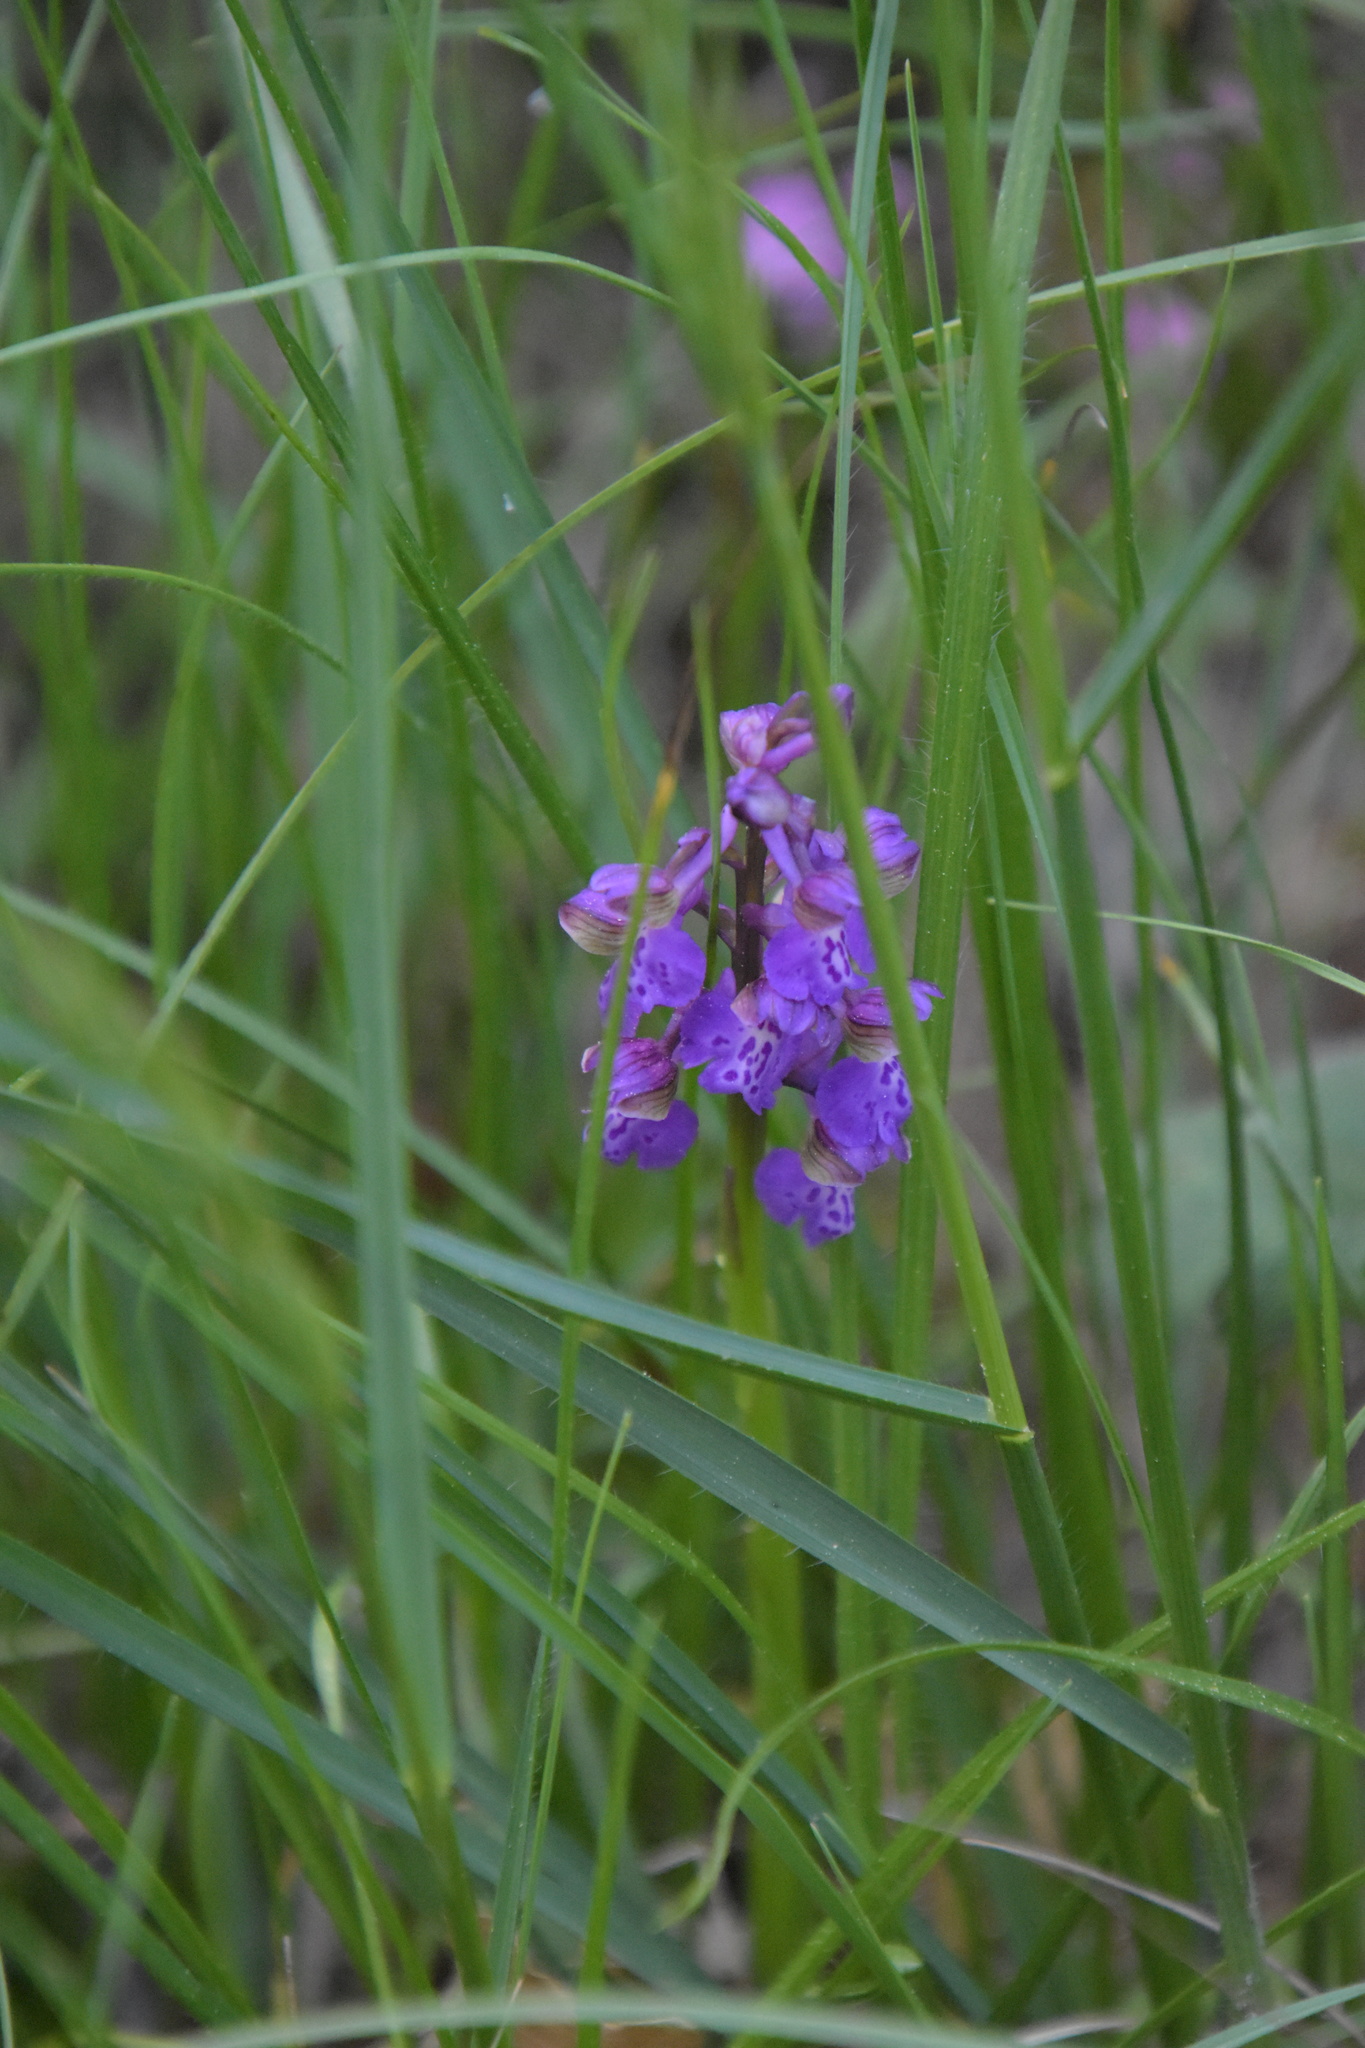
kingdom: Plantae
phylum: Tracheophyta
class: Liliopsida
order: Asparagales
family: Orchidaceae
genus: Anacamptis
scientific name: Anacamptis morio
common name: Green-winged orchid
